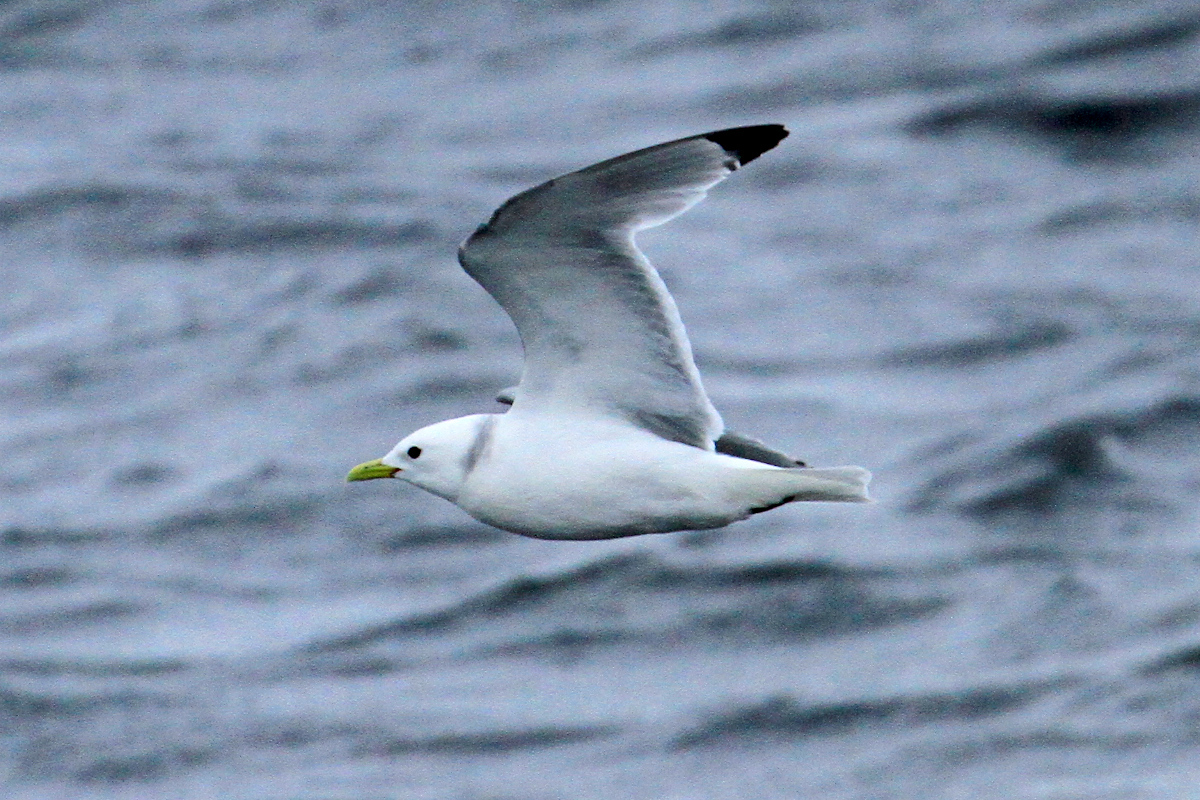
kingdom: Animalia
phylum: Chordata
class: Aves
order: Charadriiformes
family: Laridae
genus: Rissa
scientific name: Rissa tridactyla
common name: Black-legged kittiwake
